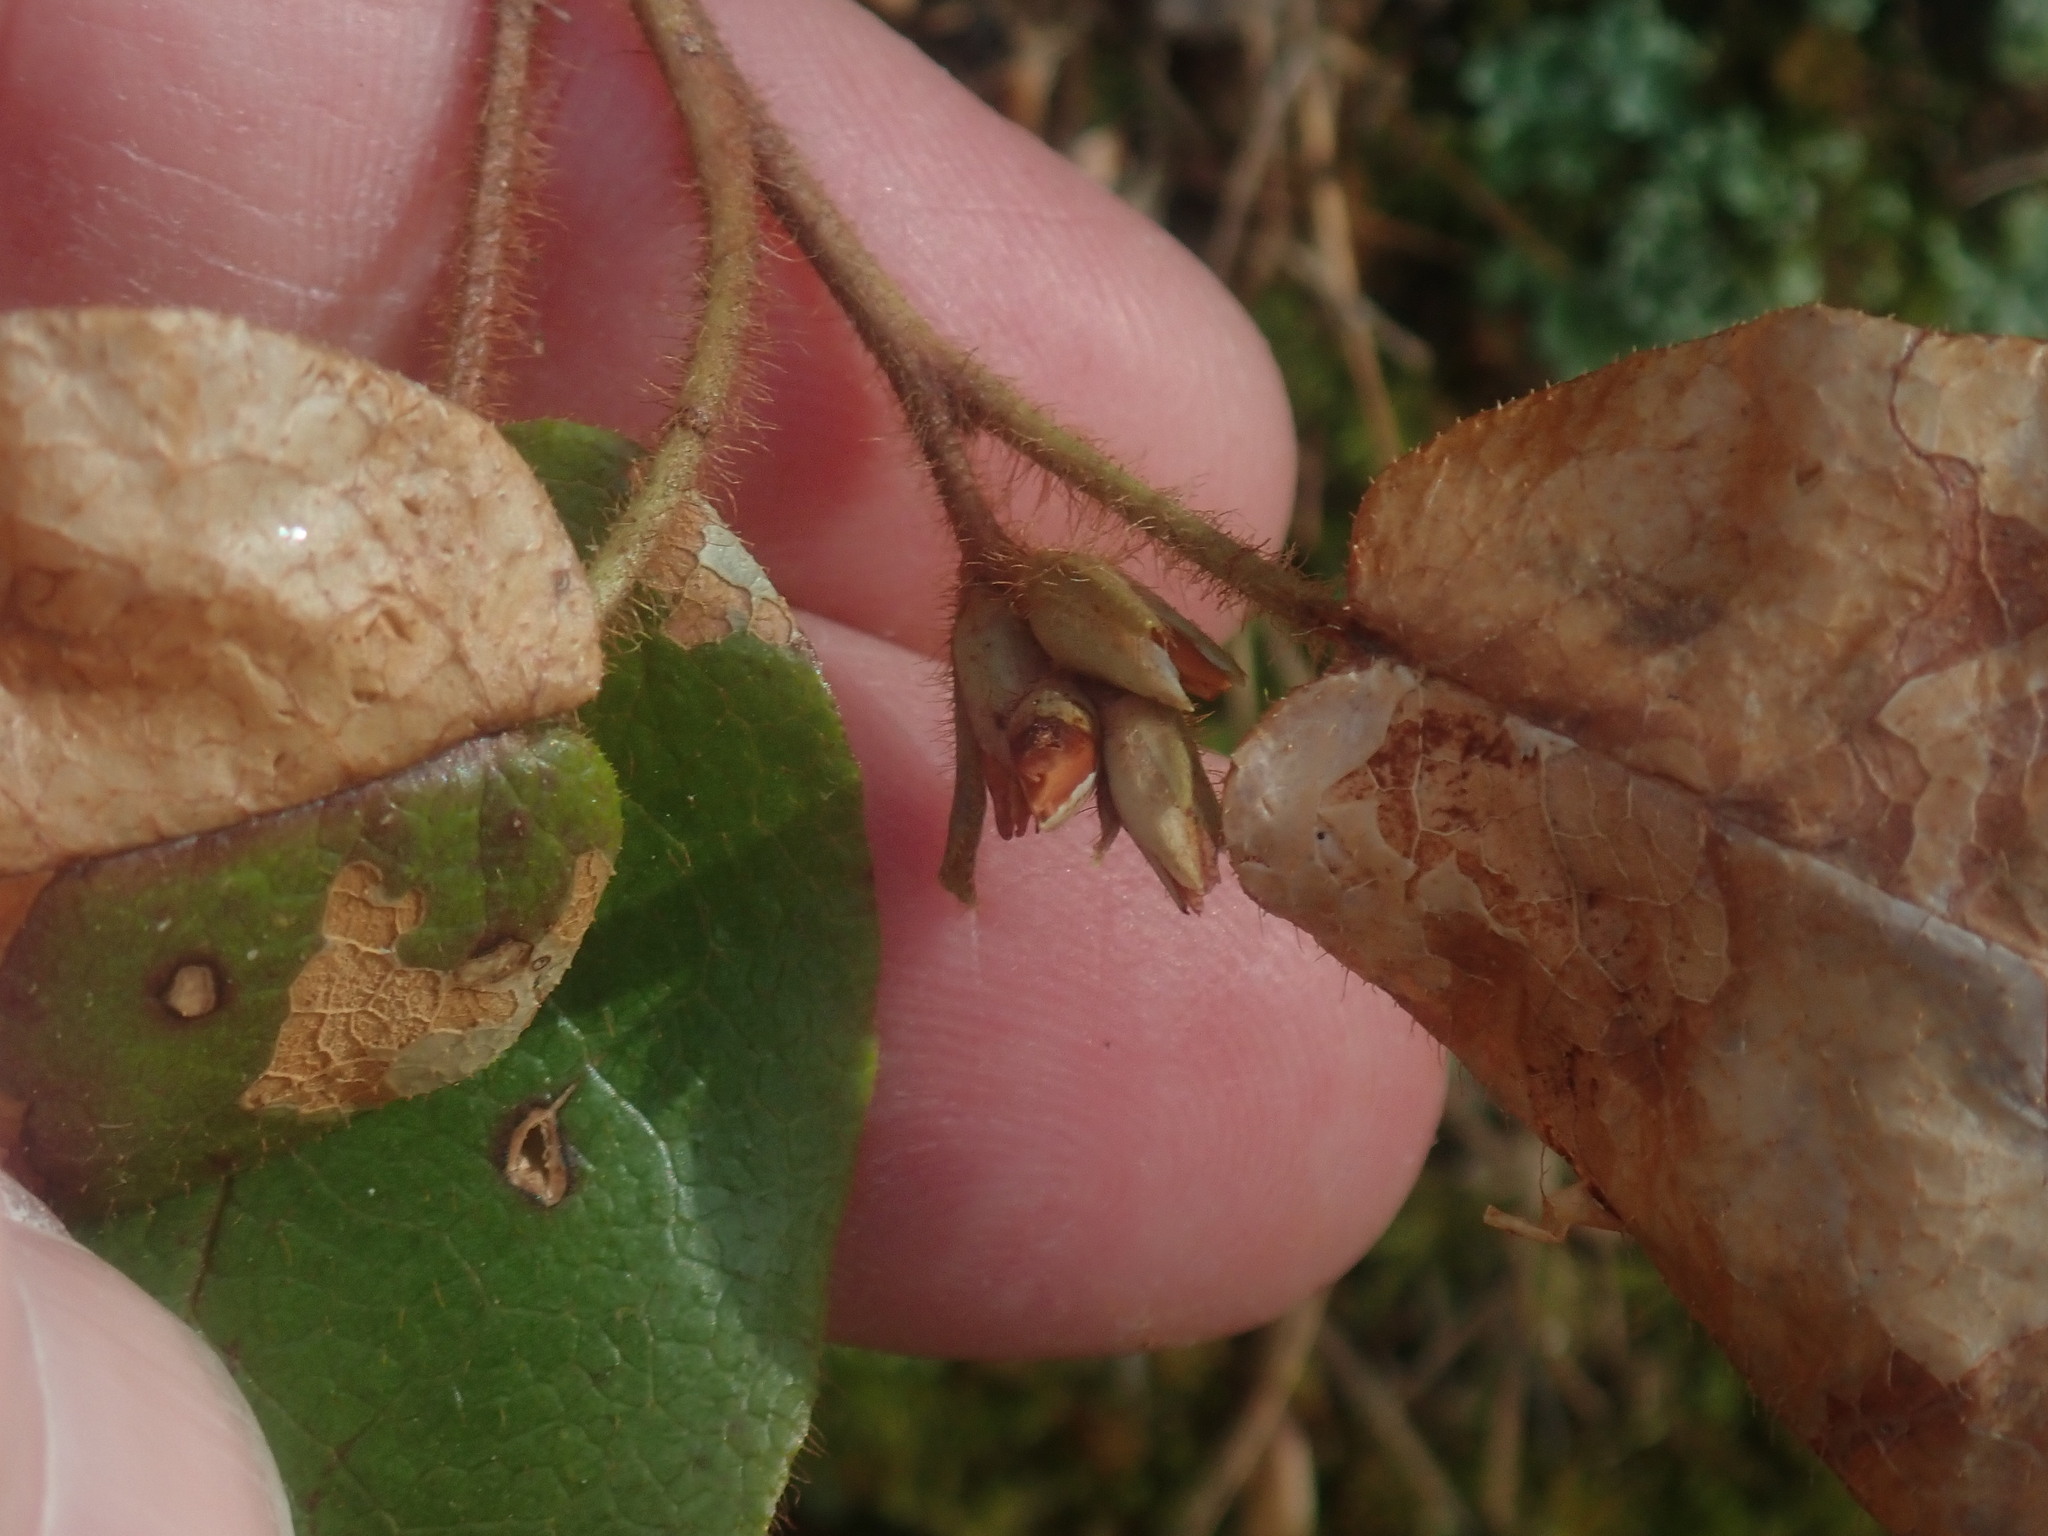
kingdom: Plantae
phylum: Tracheophyta
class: Magnoliopsida
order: Ericales
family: Ericaceae
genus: Epigaea
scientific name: Epigaea repens
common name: Gravelroot
